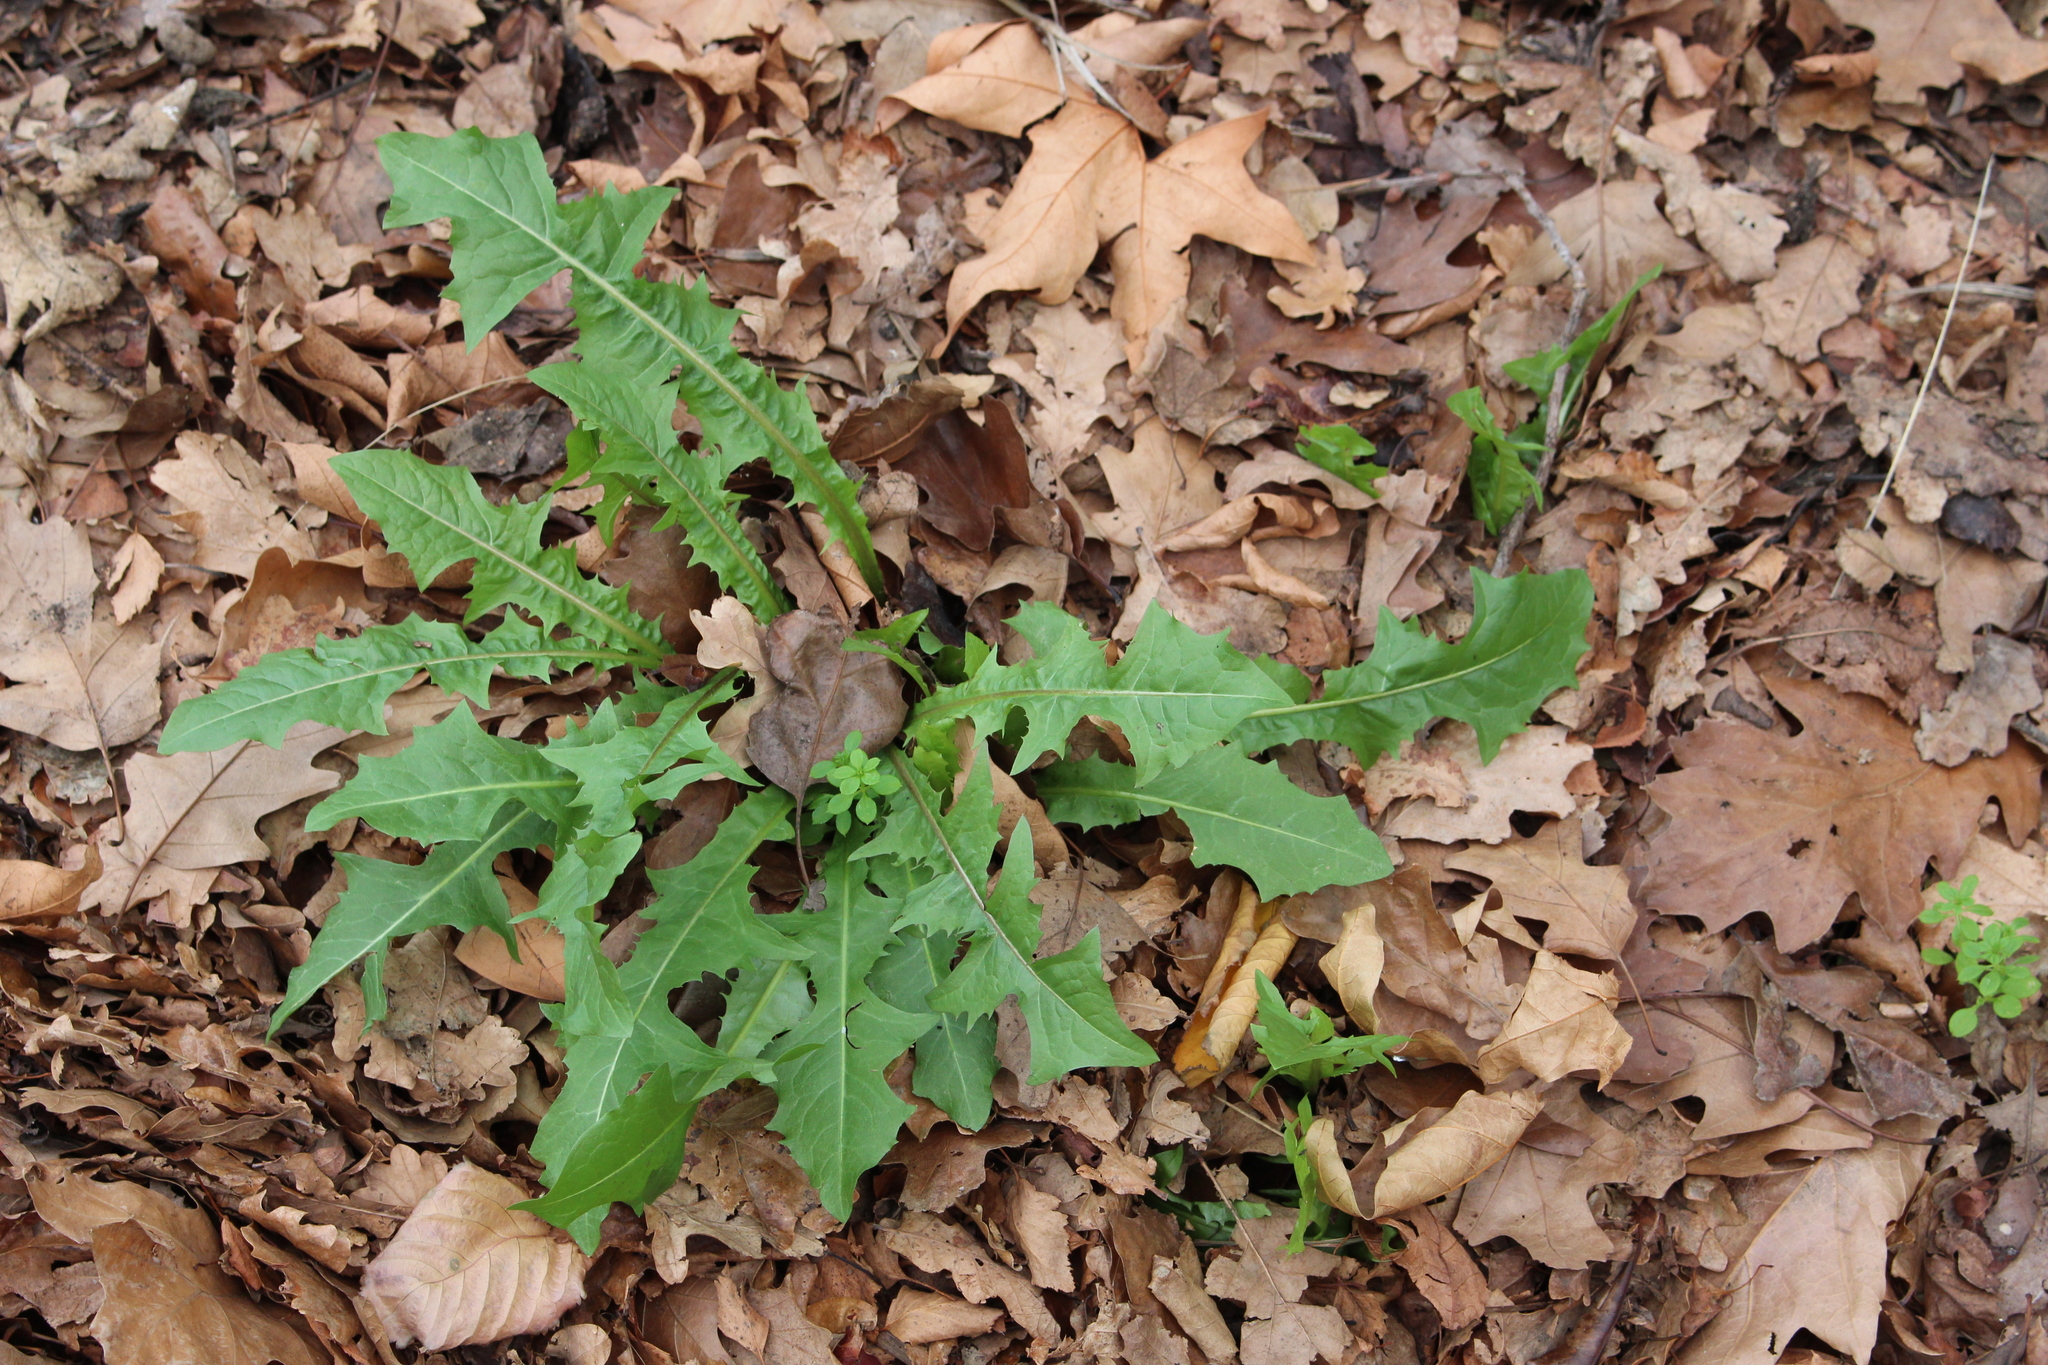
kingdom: Plantae
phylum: Tracheophyta
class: Magnoliopsida
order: Asterales
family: Asteraceae
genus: Taraxacum
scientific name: Taraxacum officinale
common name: Common dandelion
